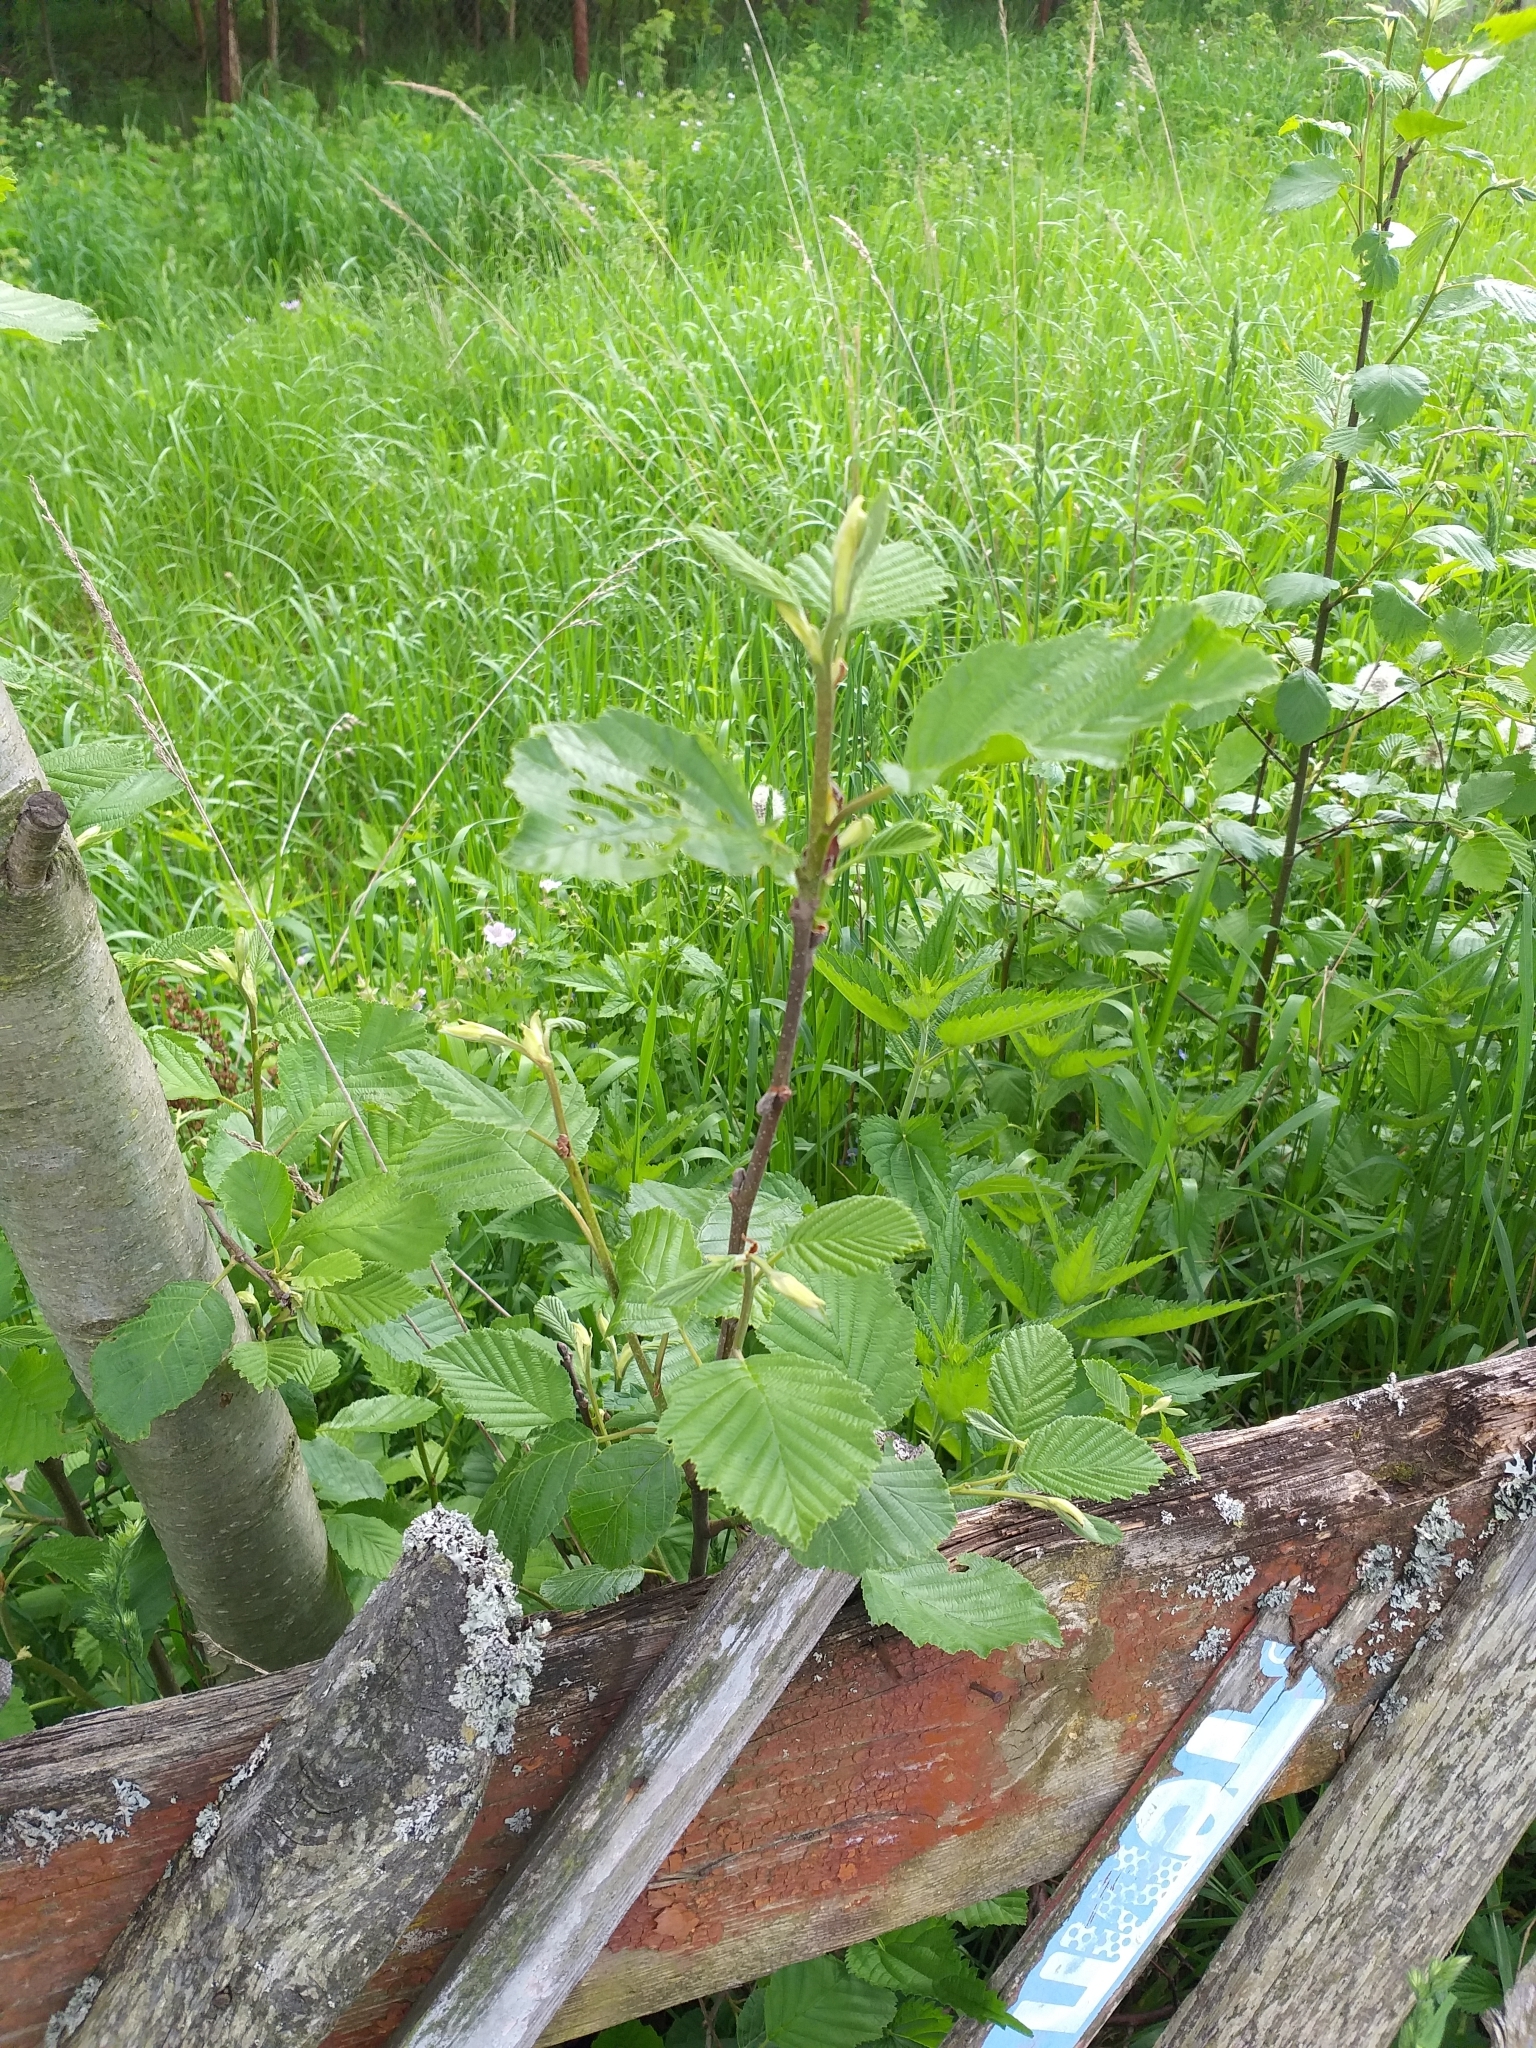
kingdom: Plantae
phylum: Tracheophyta
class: Magnoliopsida
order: Fagales
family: Betulaceae
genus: Alnus
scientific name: Alnus incana
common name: Grey alder
